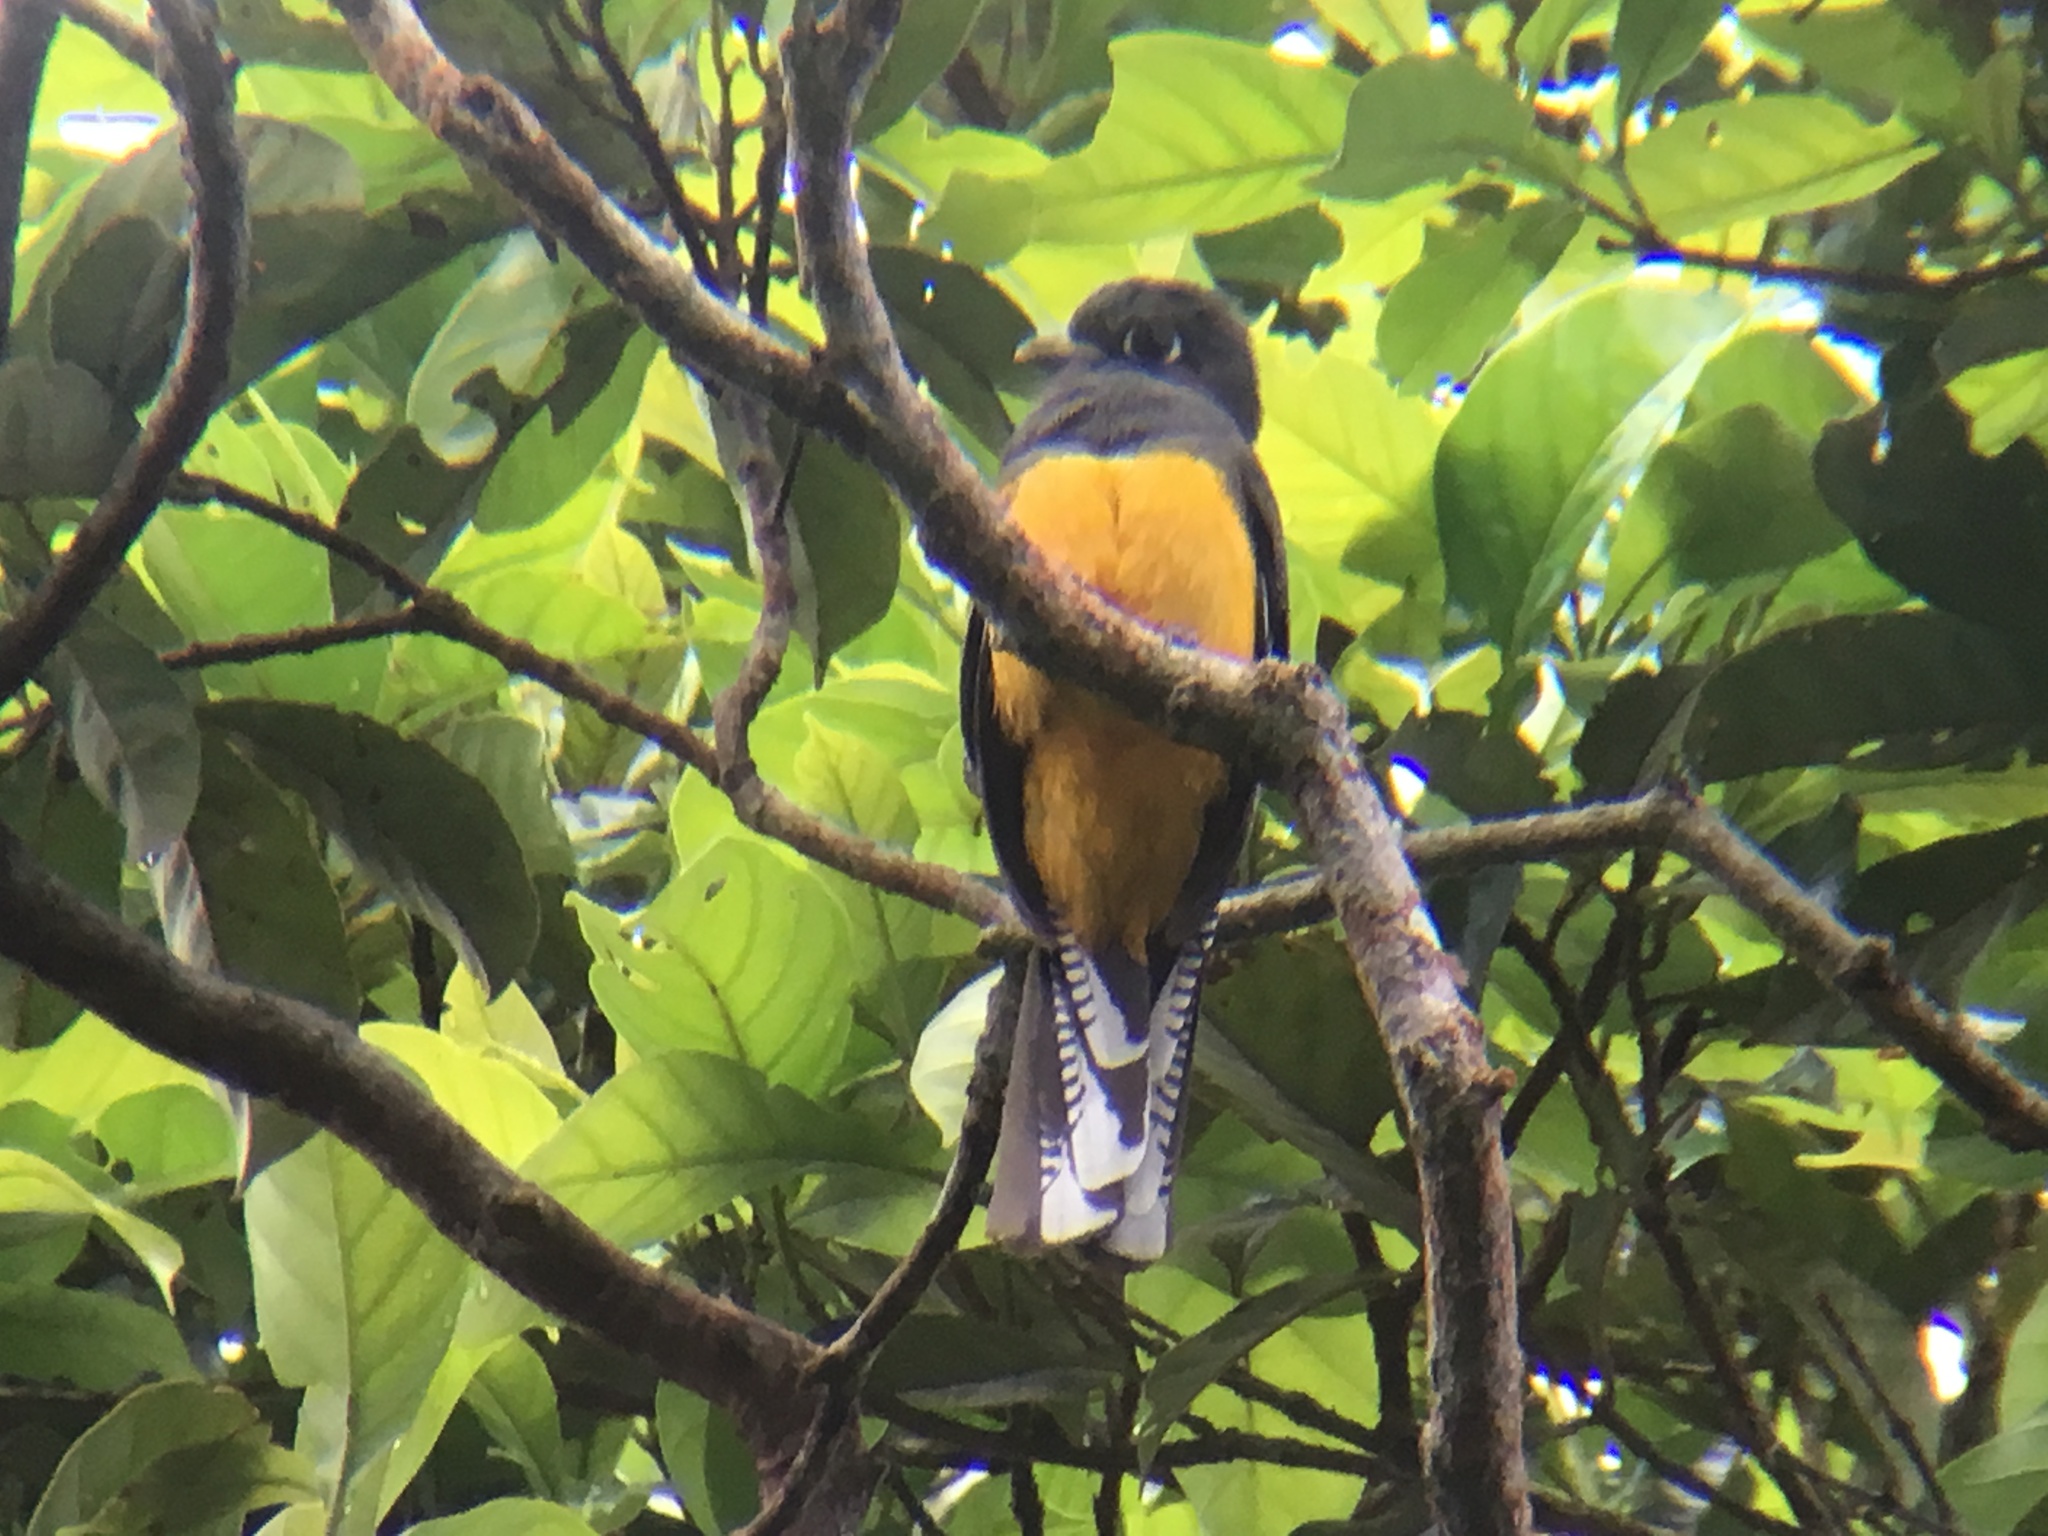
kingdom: Animalia
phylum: Chordata
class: Aves
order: Trogoniformes
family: Trogonidae
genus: Trogon
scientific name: Trogon ramonianus
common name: Amazonian trogon
